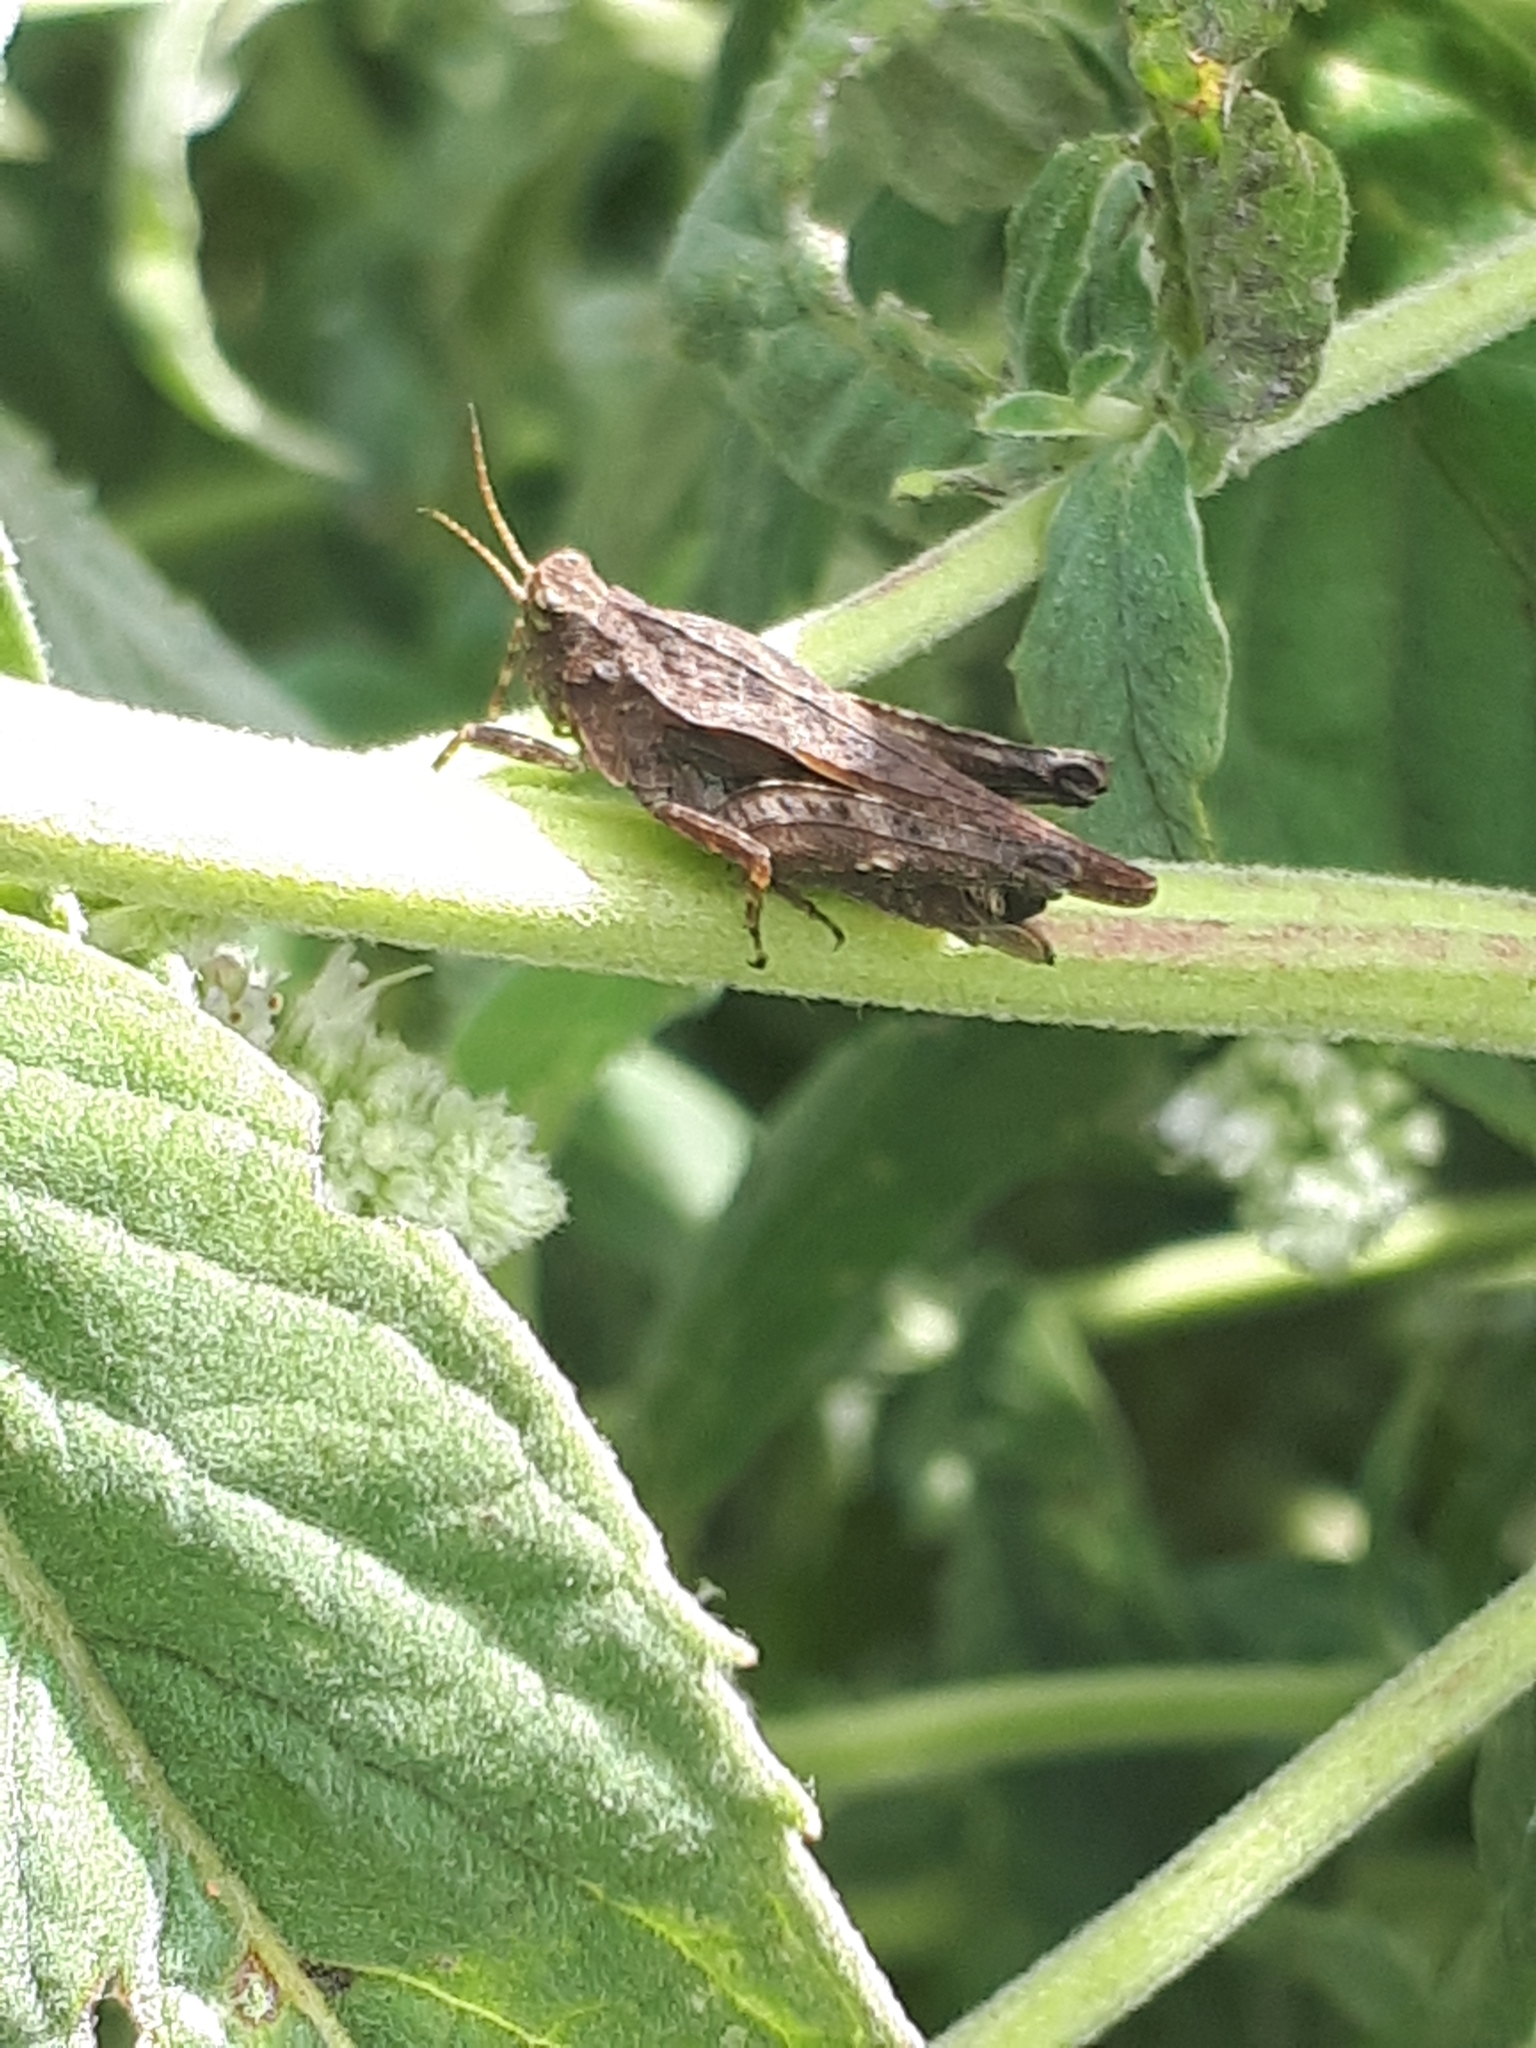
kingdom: Animalia
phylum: Arthropoda
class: Insecta
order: Orthoptera
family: Tetrigidae
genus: Tetrix
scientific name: Tetrix subulata
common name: Slender ground-hopper
